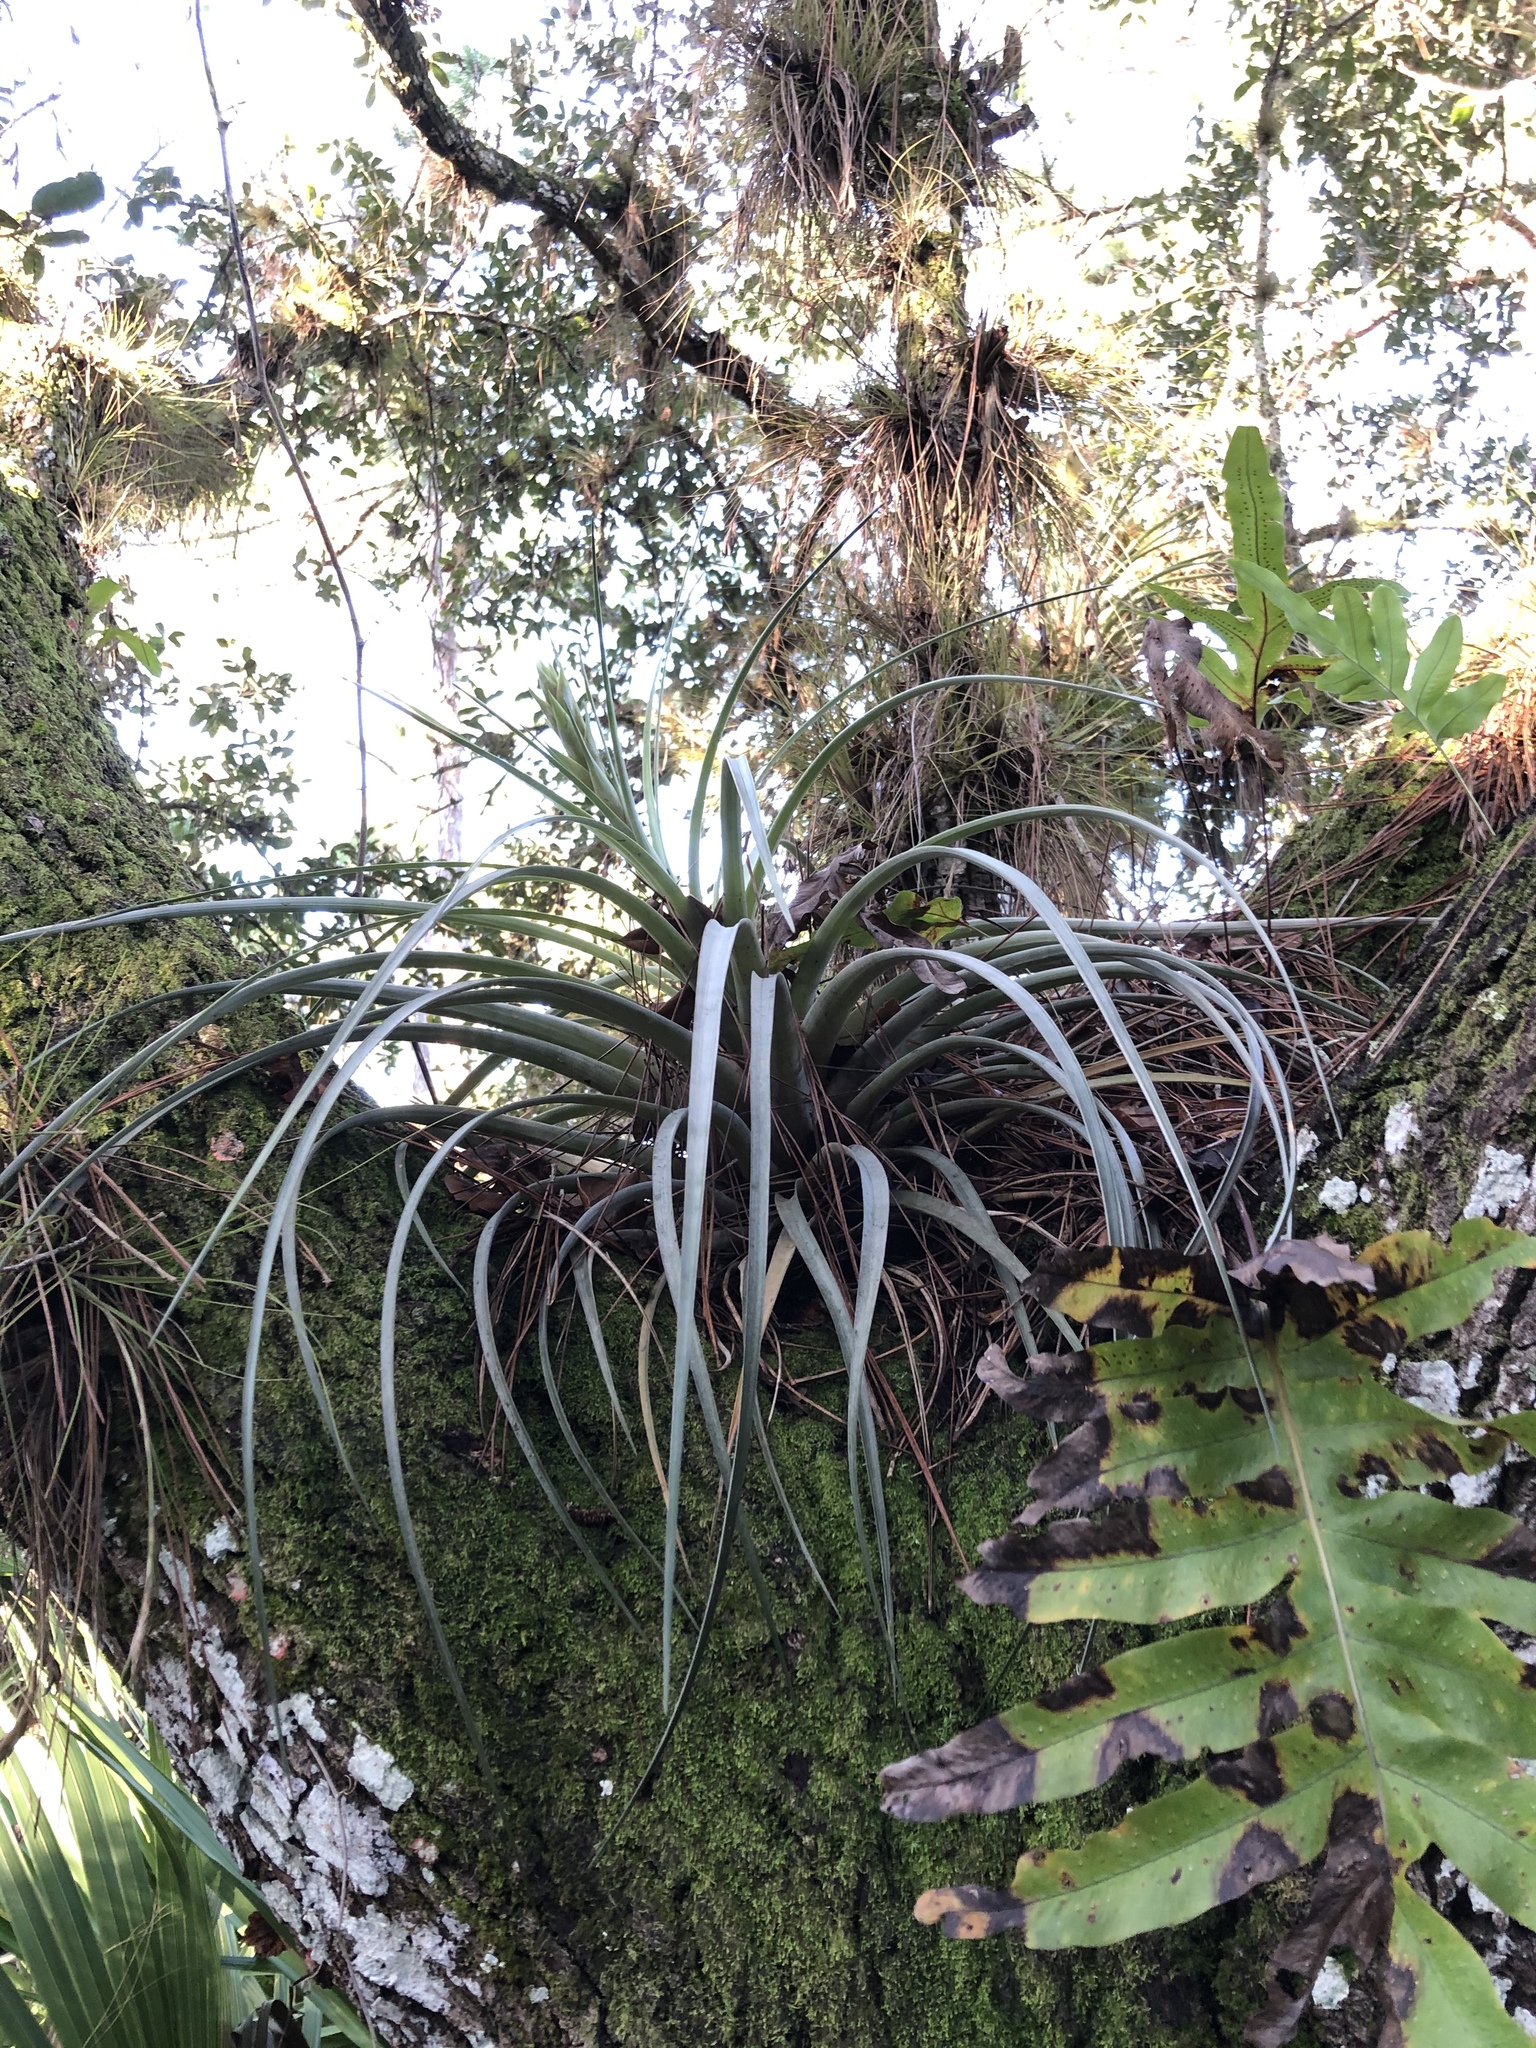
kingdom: Plantae
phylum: Tracheophyta
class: Liliopsida
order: Poales
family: Bromeliaceae
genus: Tillandsia
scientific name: Tillandsia fasciculata
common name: Giant airplant
